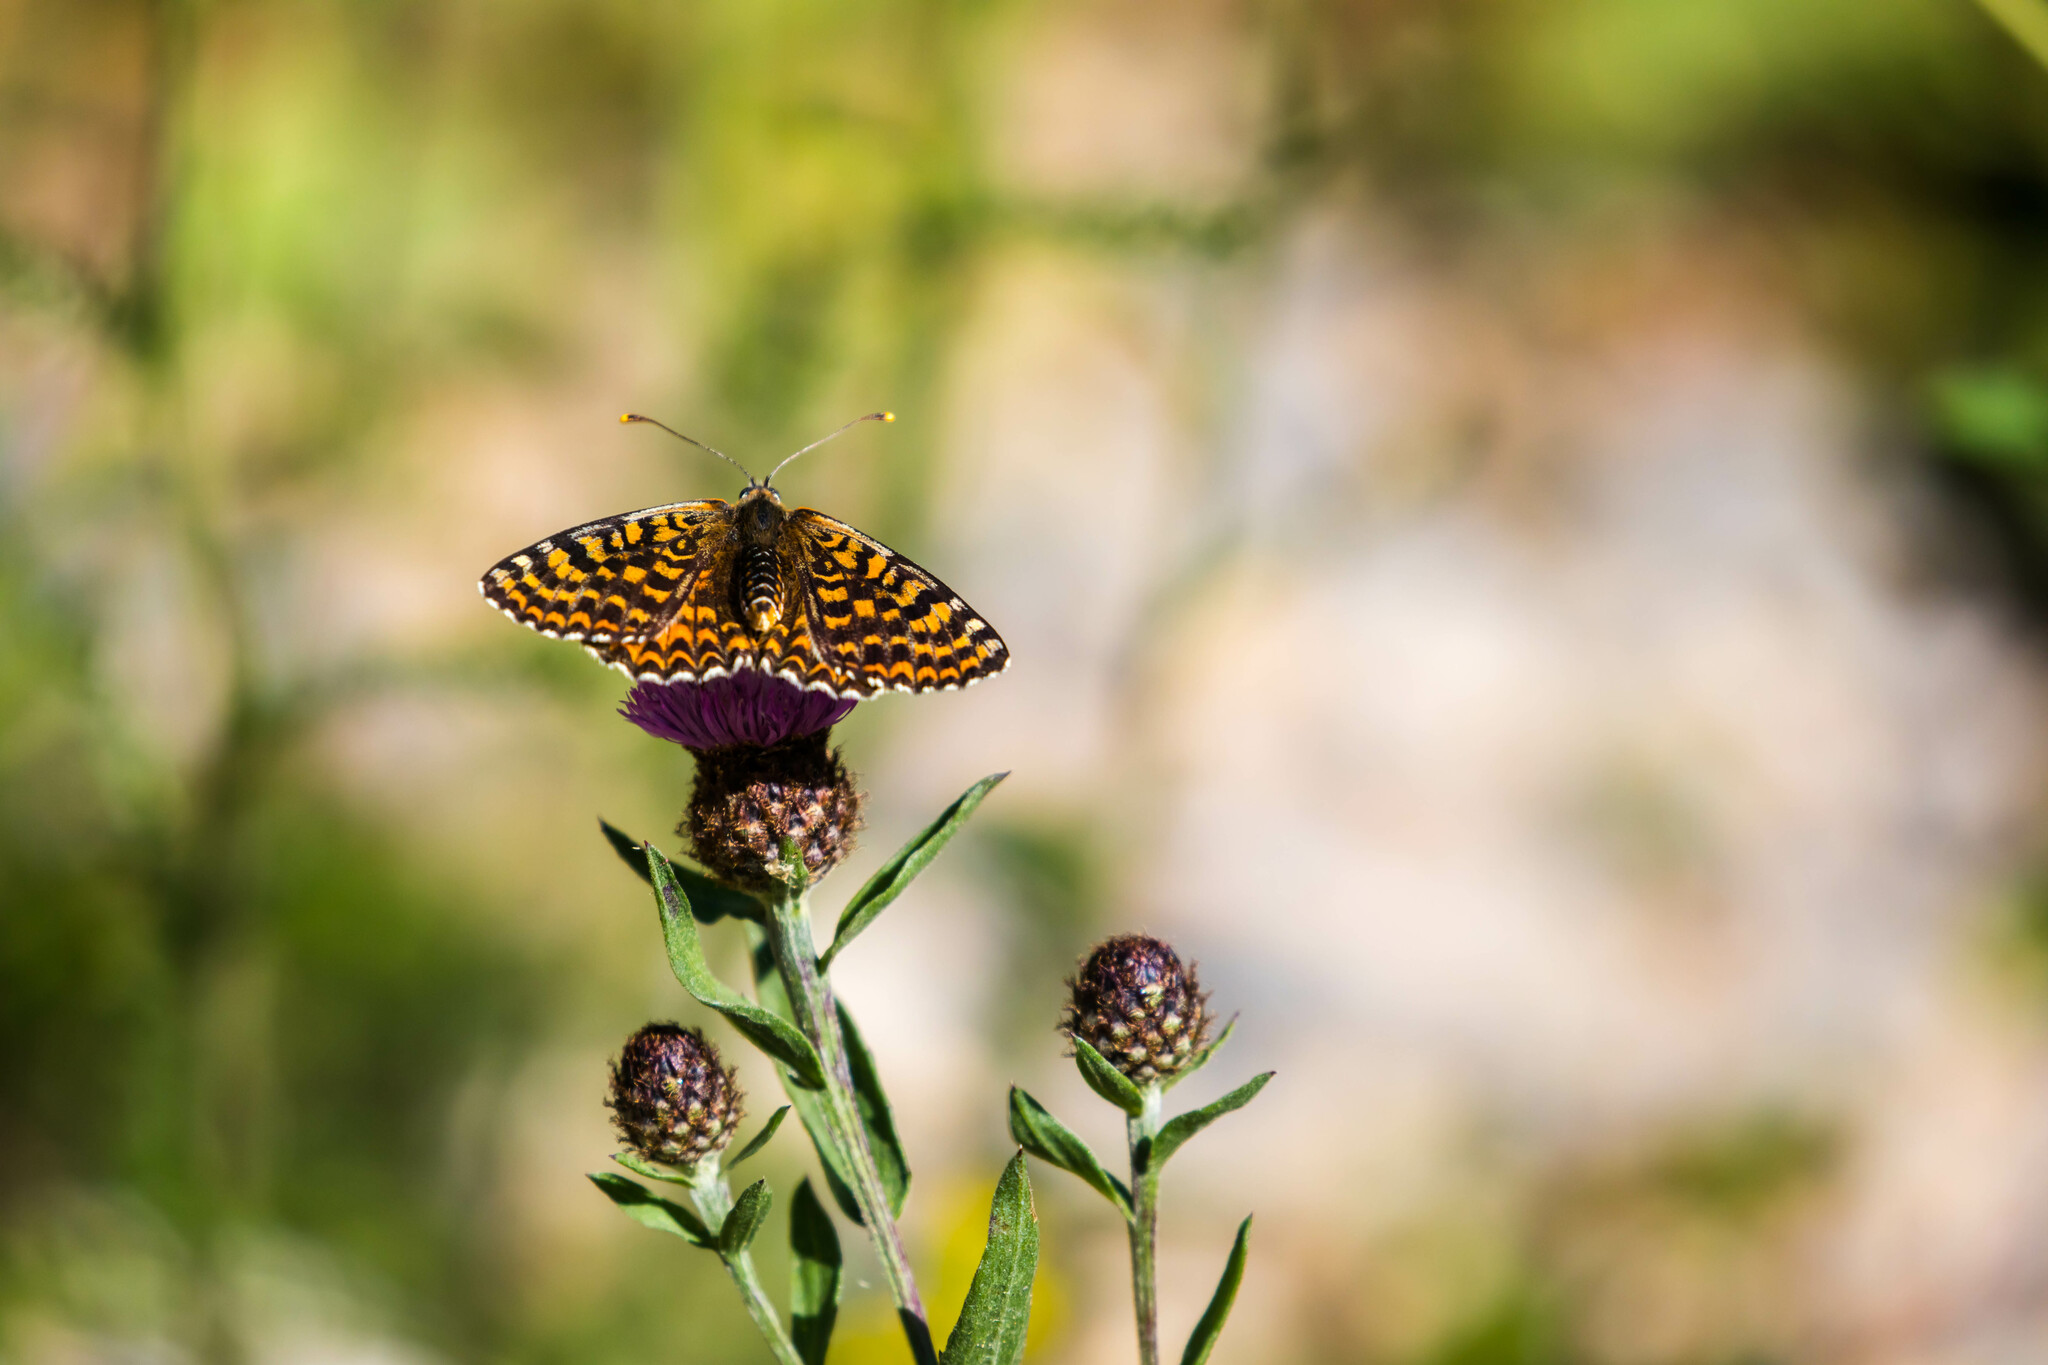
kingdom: Animalia
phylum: Arthropoda
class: Insecta
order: Lepidoptera
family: Nymphalidae
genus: Melitaea
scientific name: Melitaea didyma
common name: Spotted fritillary
